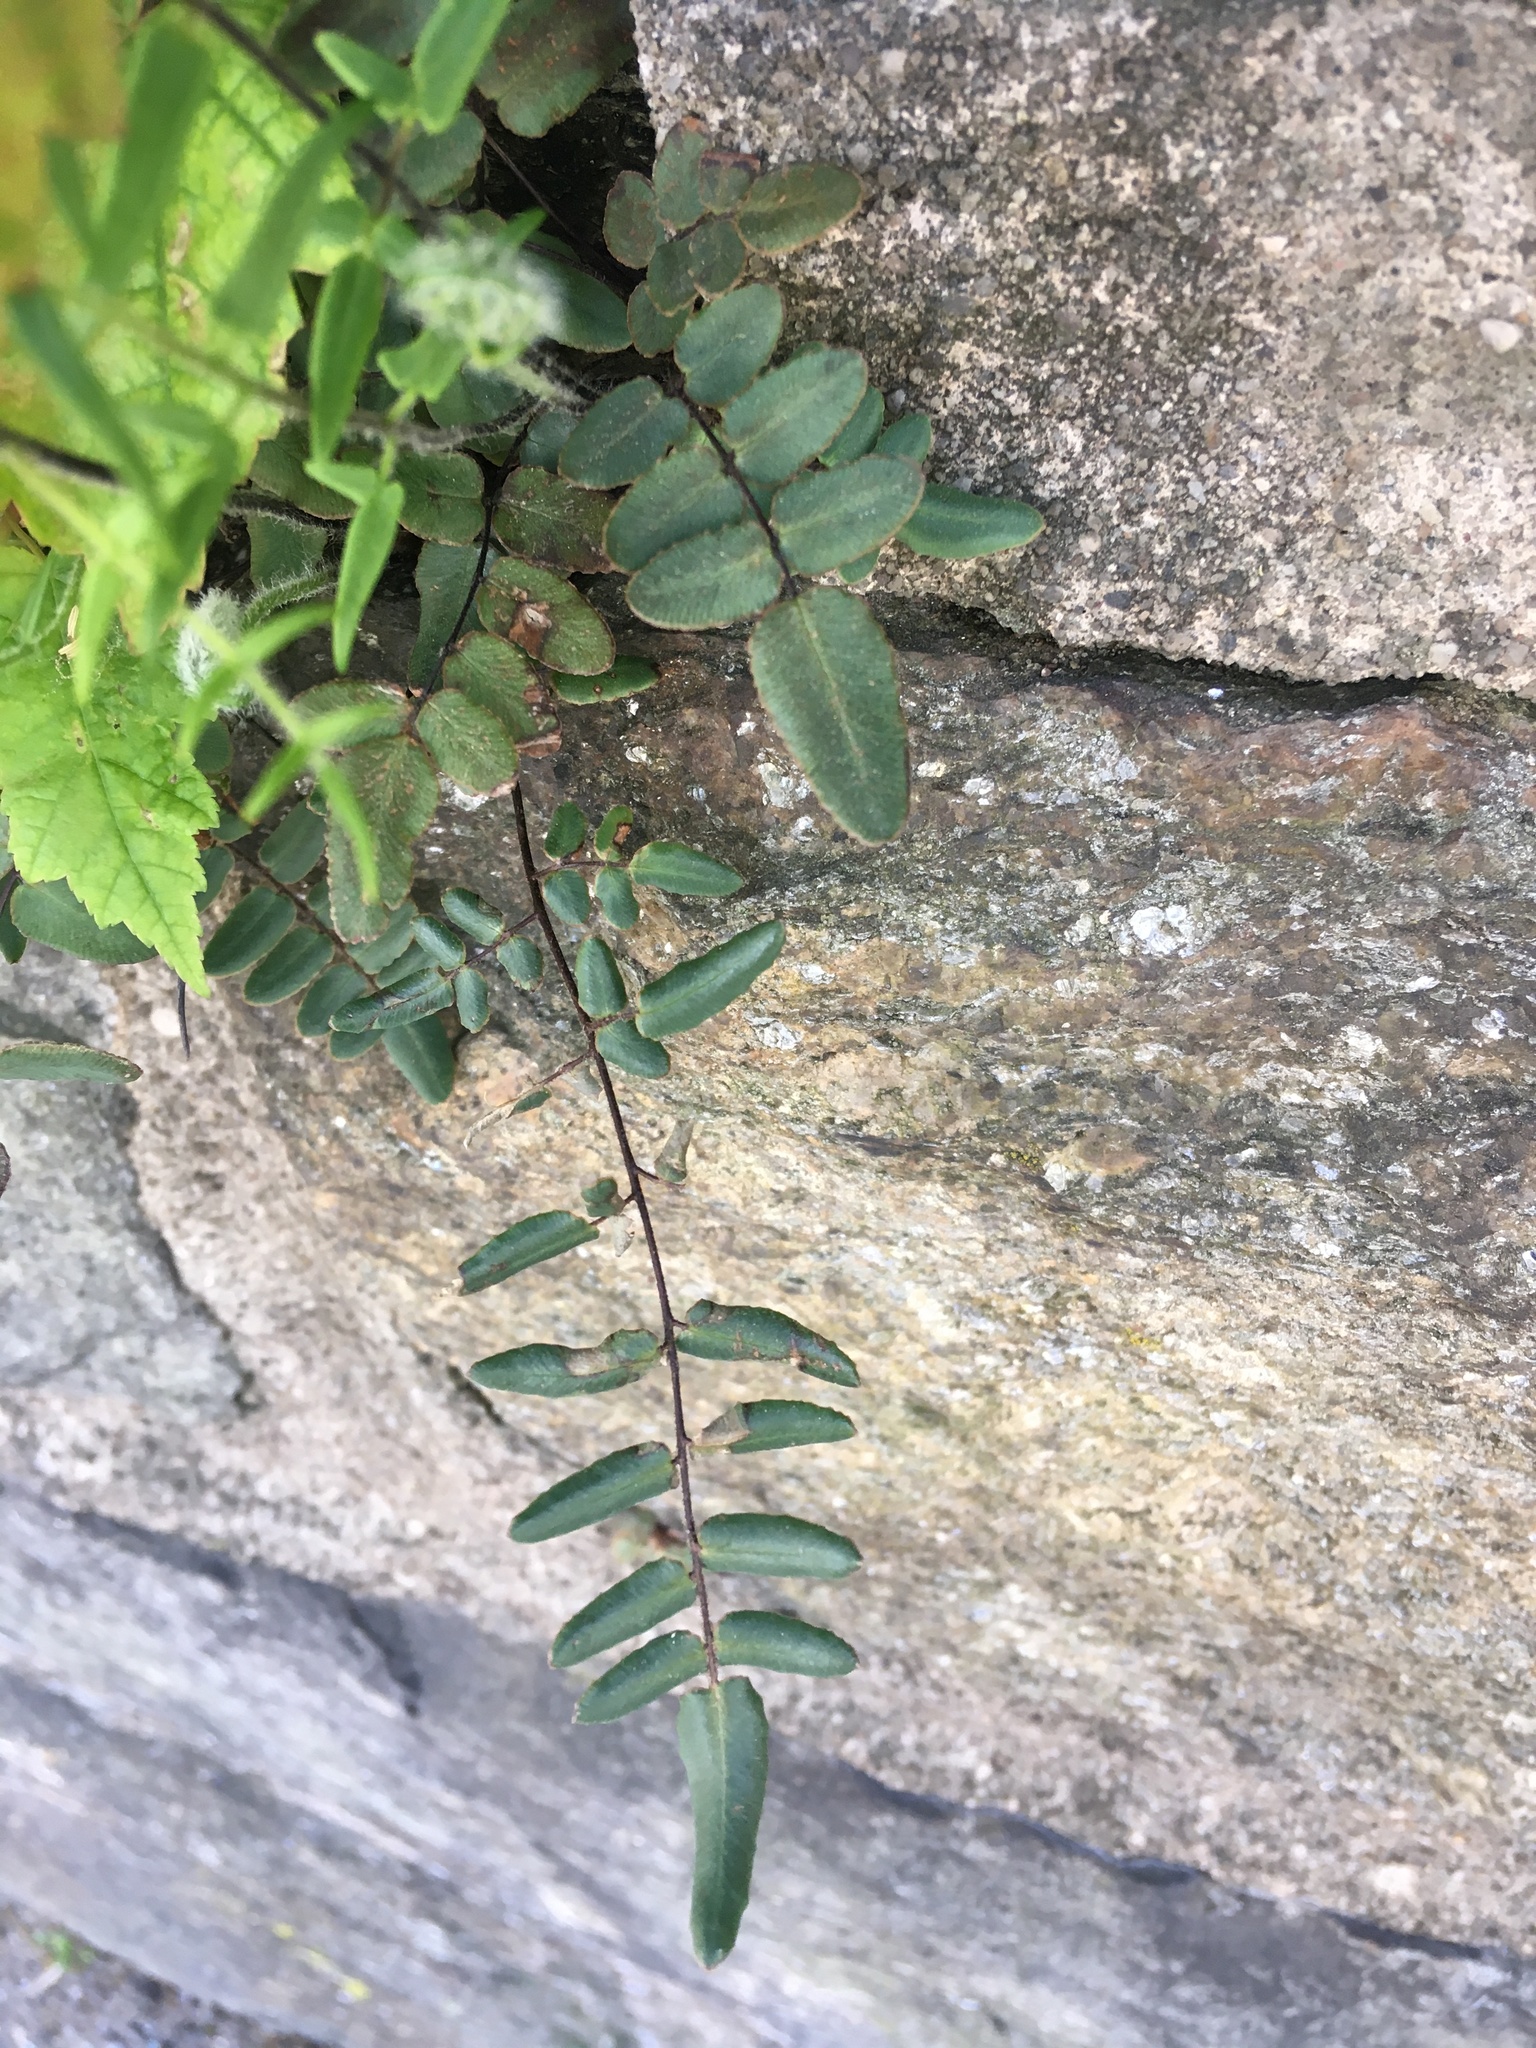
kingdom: Plantae
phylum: Tracheophyta
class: Polypodiopsida
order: Polypodiales
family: Pteridaceae
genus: Pellaea
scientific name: Pellaea atropurpurea
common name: Hairy cliffbrake
